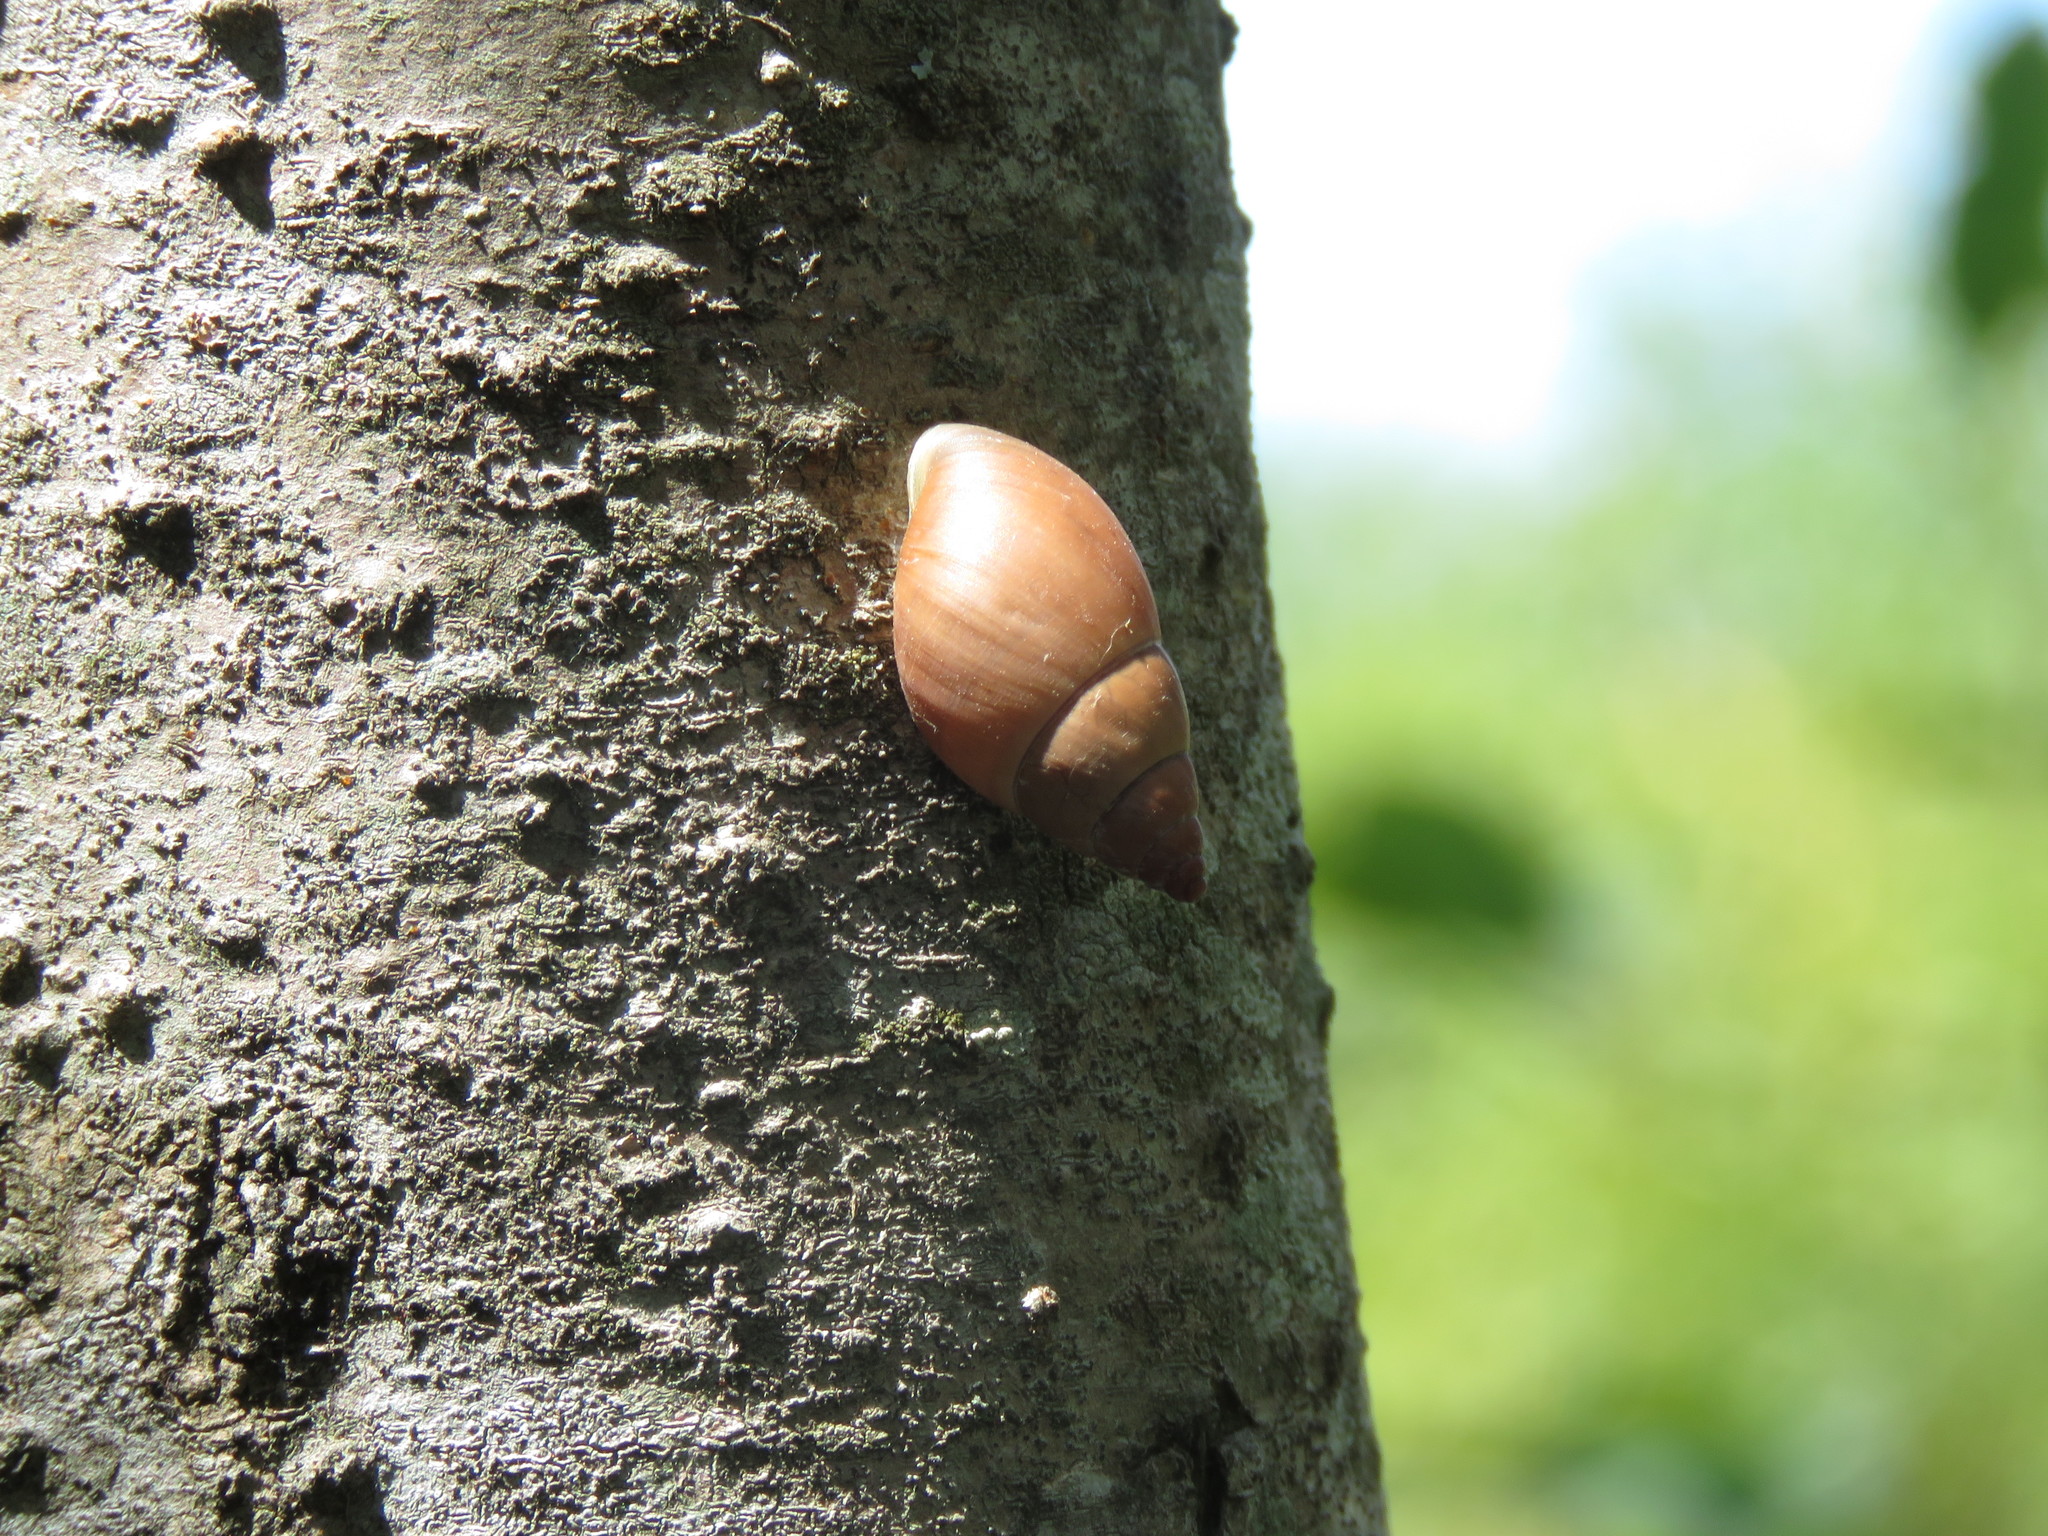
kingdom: Animalia
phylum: Mollusca
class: Gastropoda
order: Stylommatophora
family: Bulimulidae
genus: Bulimulus
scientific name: Bulimulus bonariensis
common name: Snail
